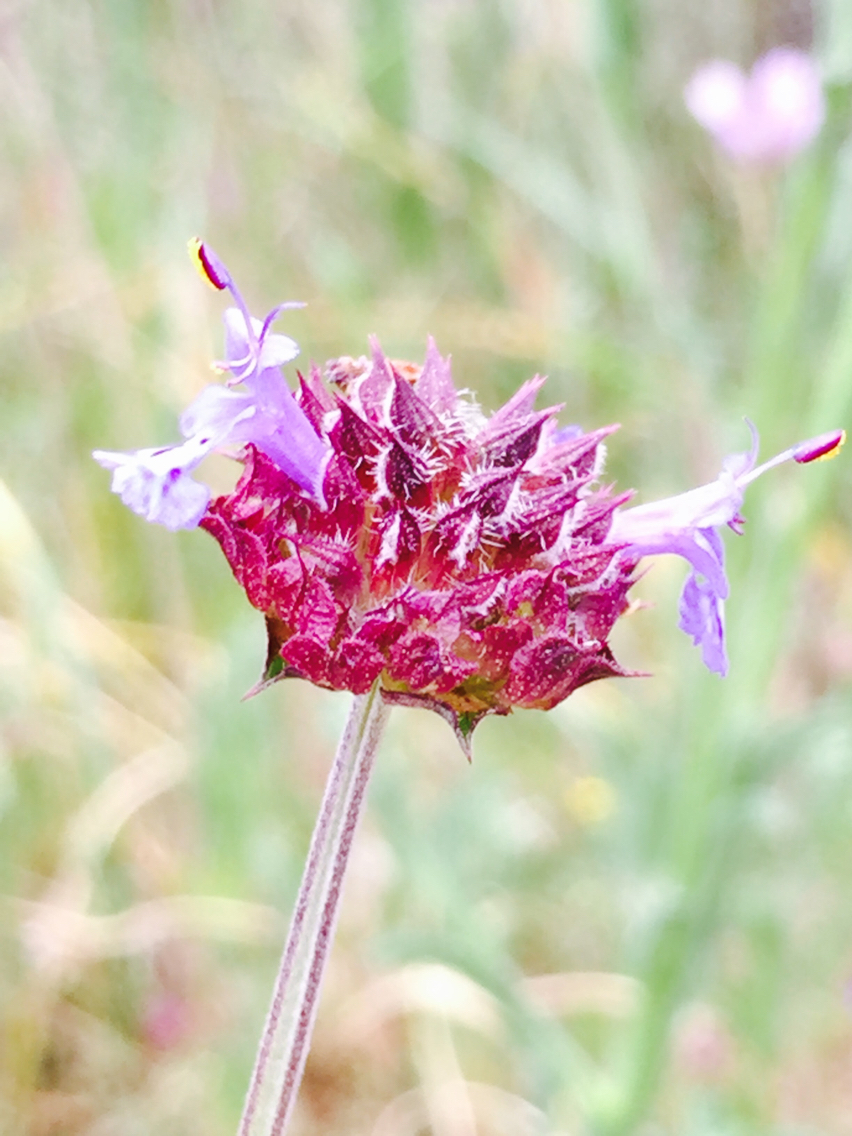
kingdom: Plantae
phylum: Tracheophyta
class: Magnoliopsida
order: Lamiales
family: Lamiaceae
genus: Salvia
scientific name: Salvia columbariae
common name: Chia
